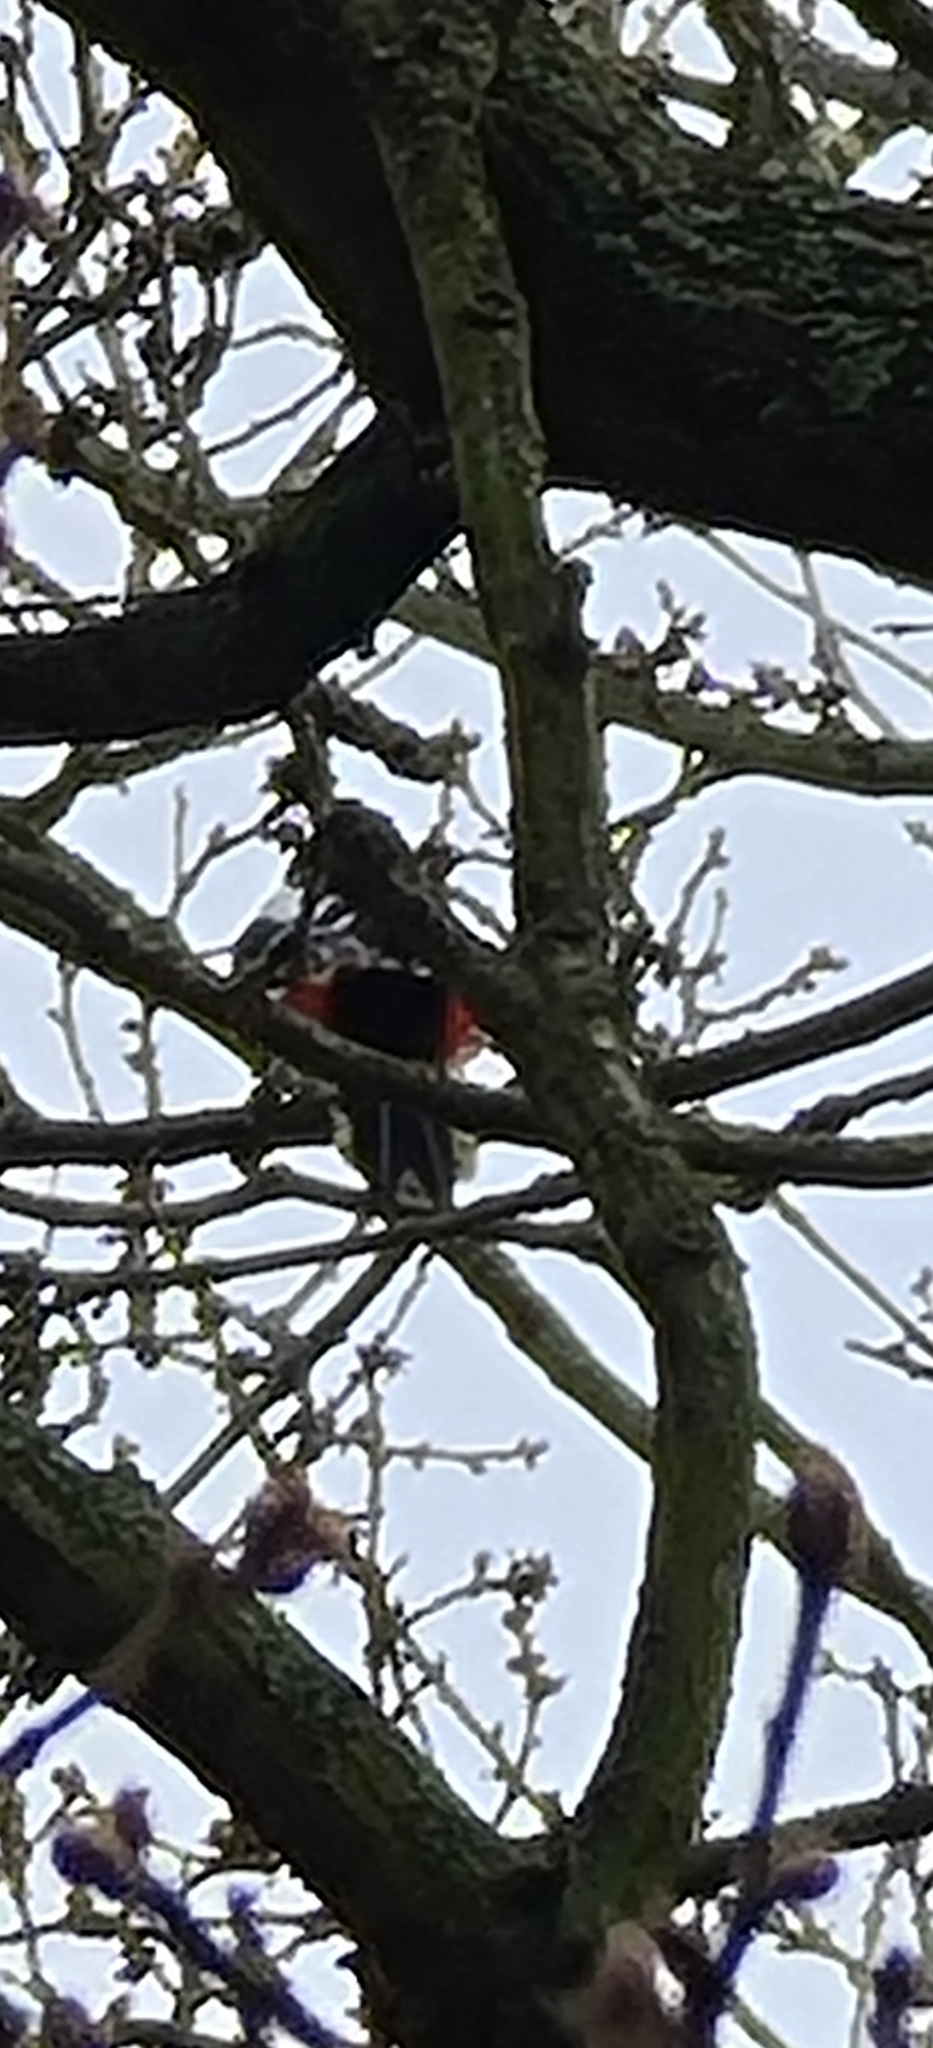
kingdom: Animalia
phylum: Chordata
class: Aves
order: Piciformes
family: Picidae
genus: Dendrocopos
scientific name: Dendrocopos major
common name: Great spotted woodpecker
